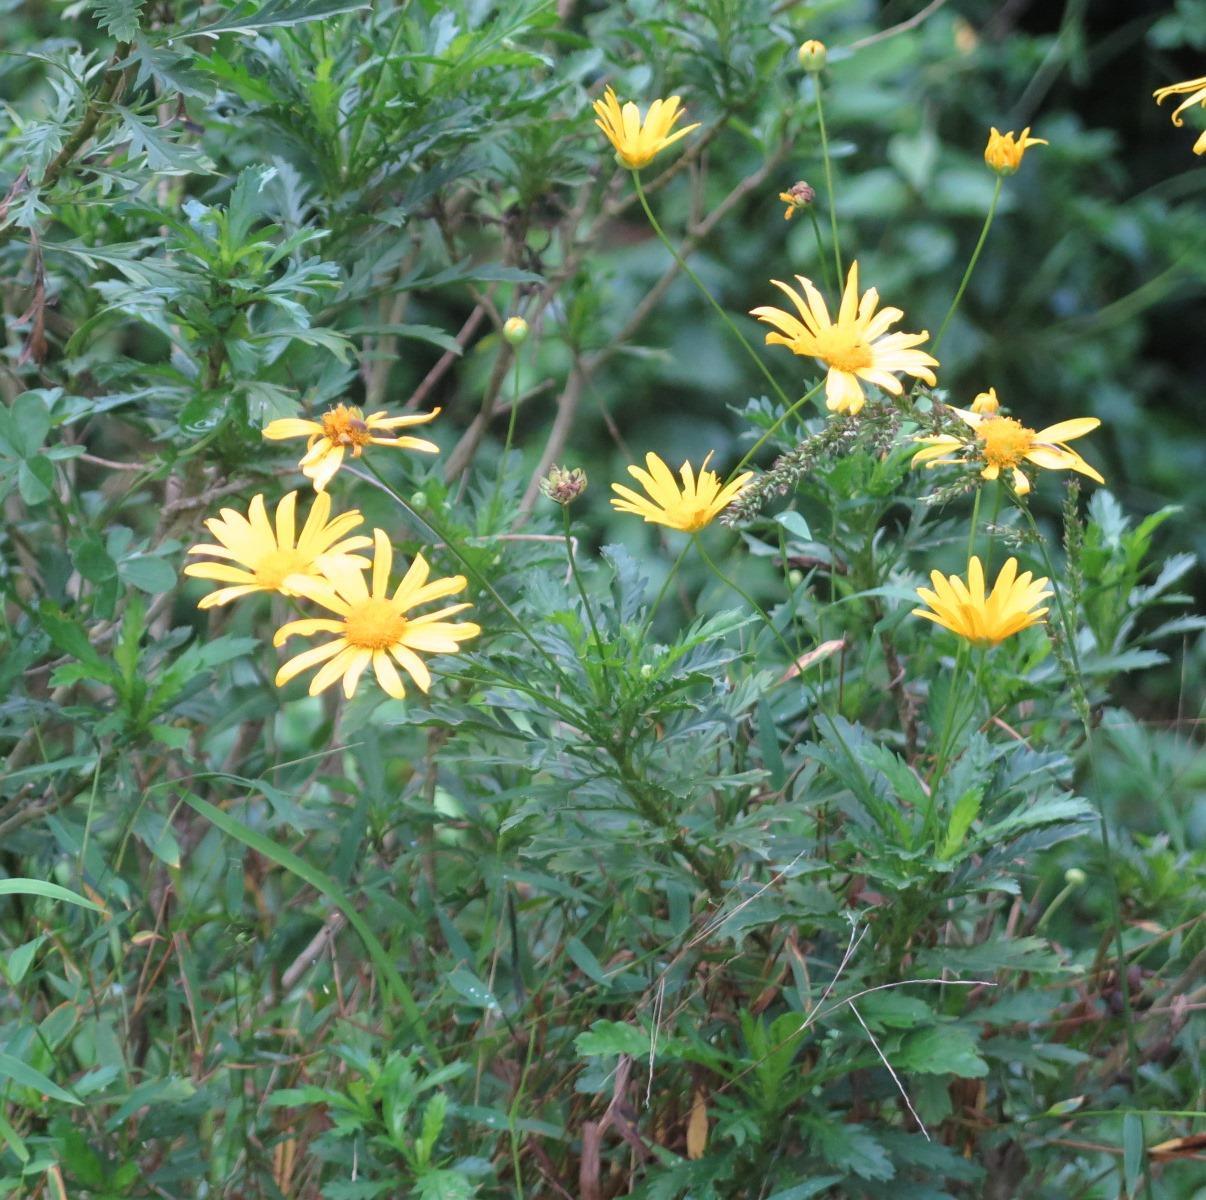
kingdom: Plantae
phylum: Tracheophyta
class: Magnoliopsida
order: Asterales
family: Asteraceae
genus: Euryops
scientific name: Euryops chrysanthemoides
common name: Bull's eye
